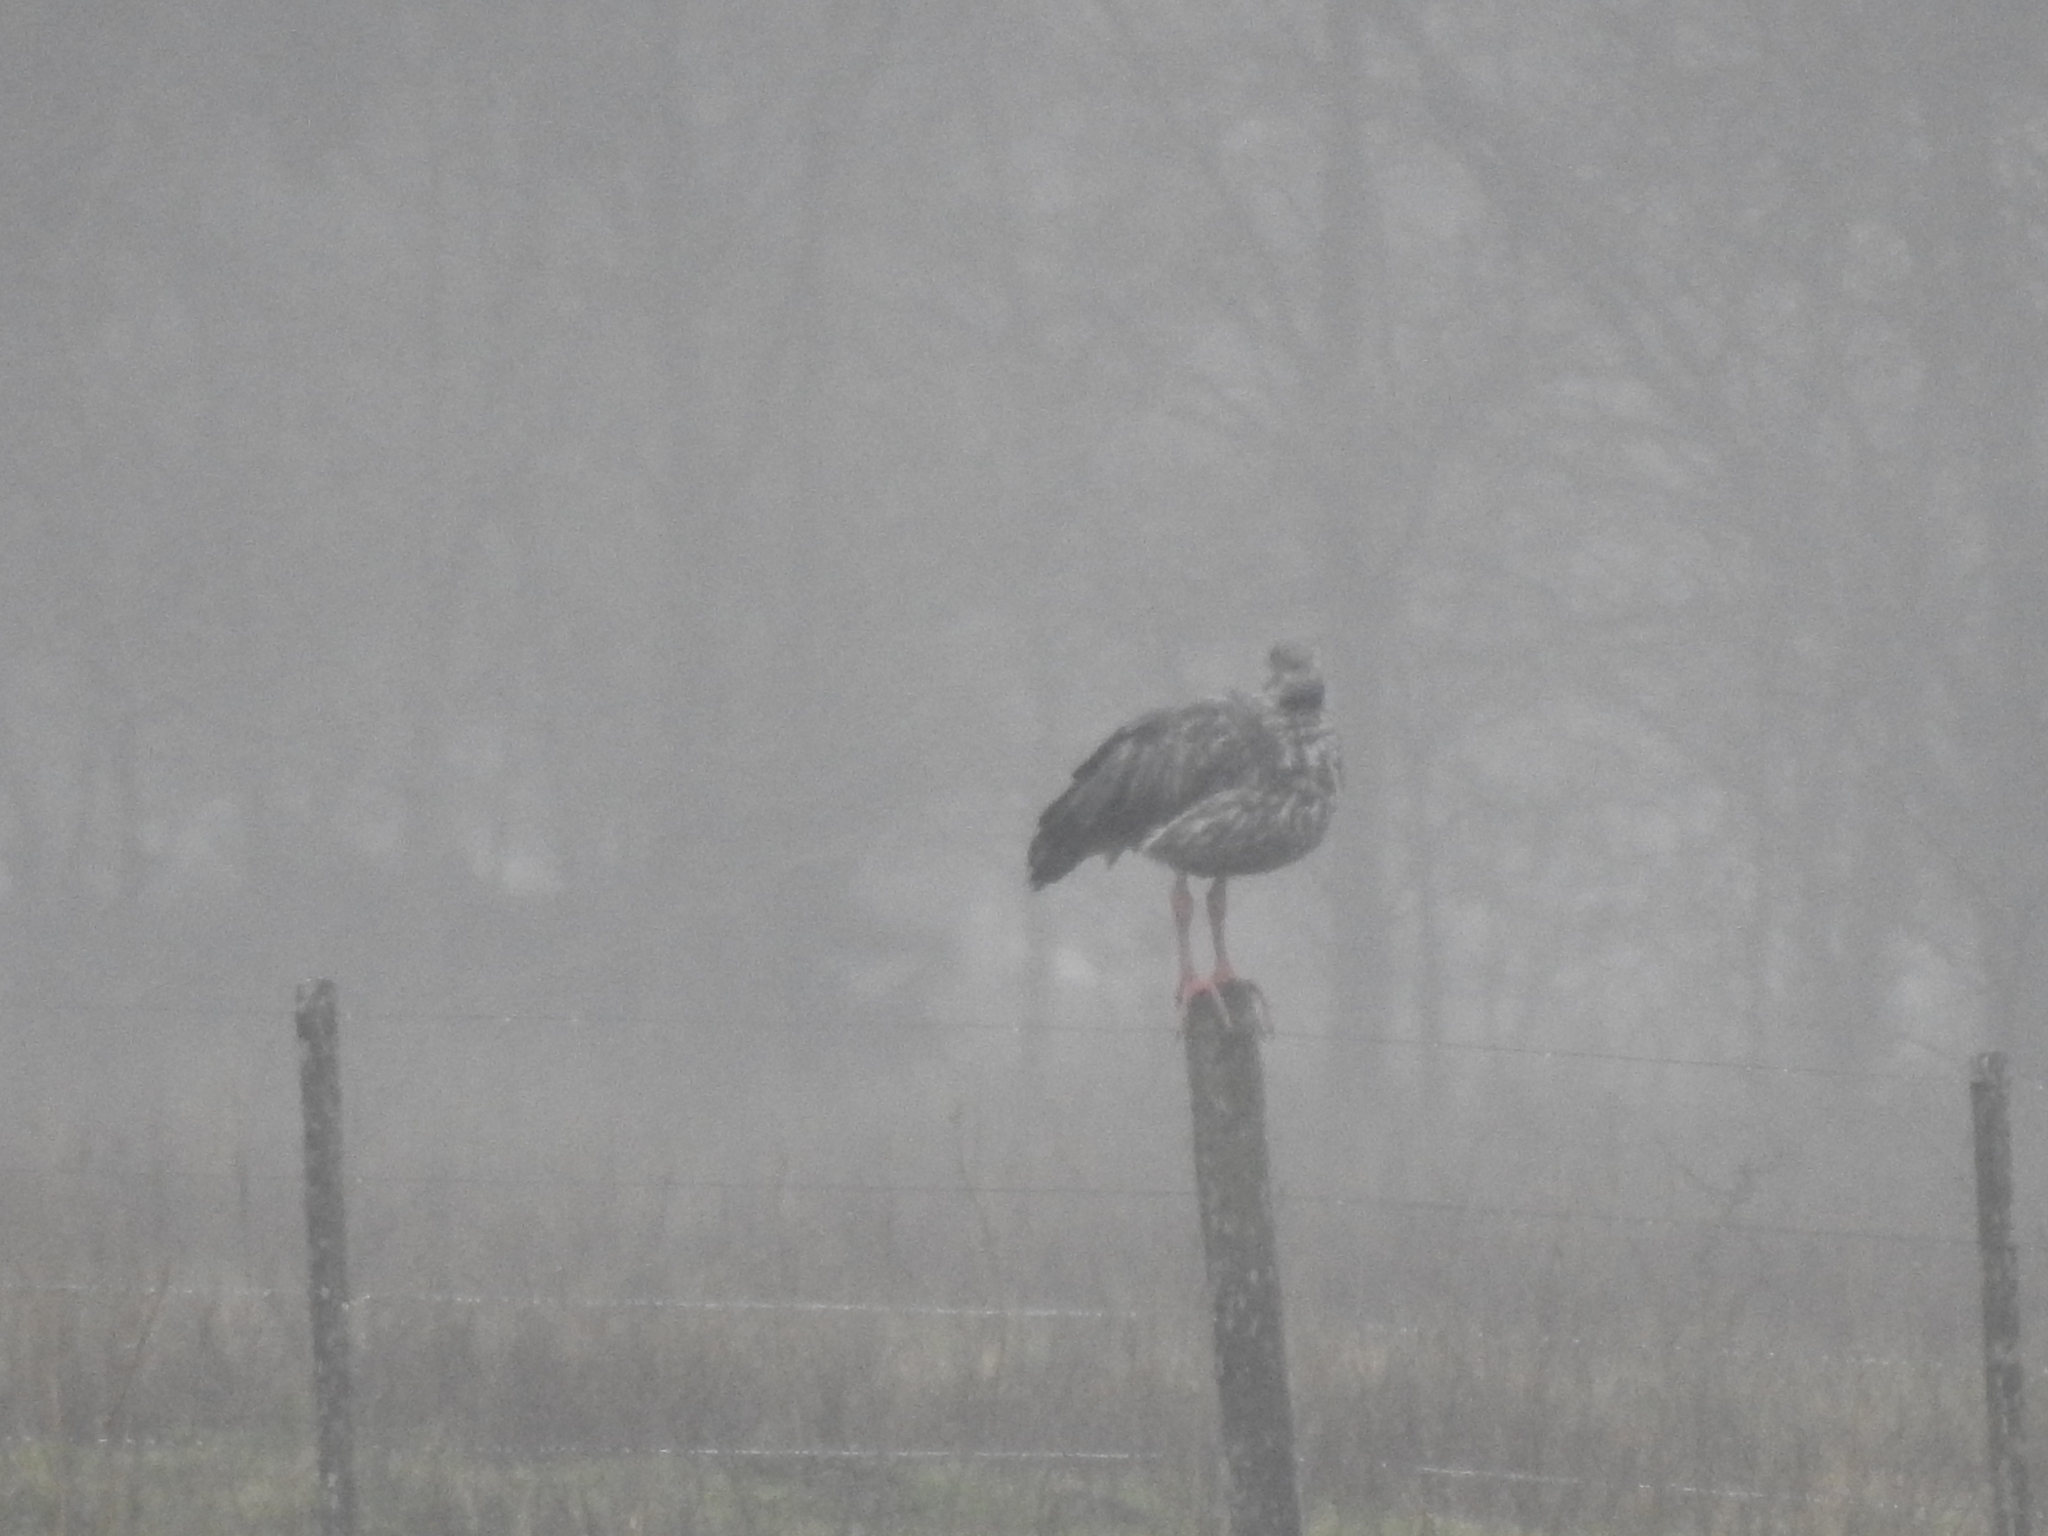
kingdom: Animalia
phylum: Chordata
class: Aves
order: Anseriformes
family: Anhimidae
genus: Chauna
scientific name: Chauna torquata
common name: Southern screamer
